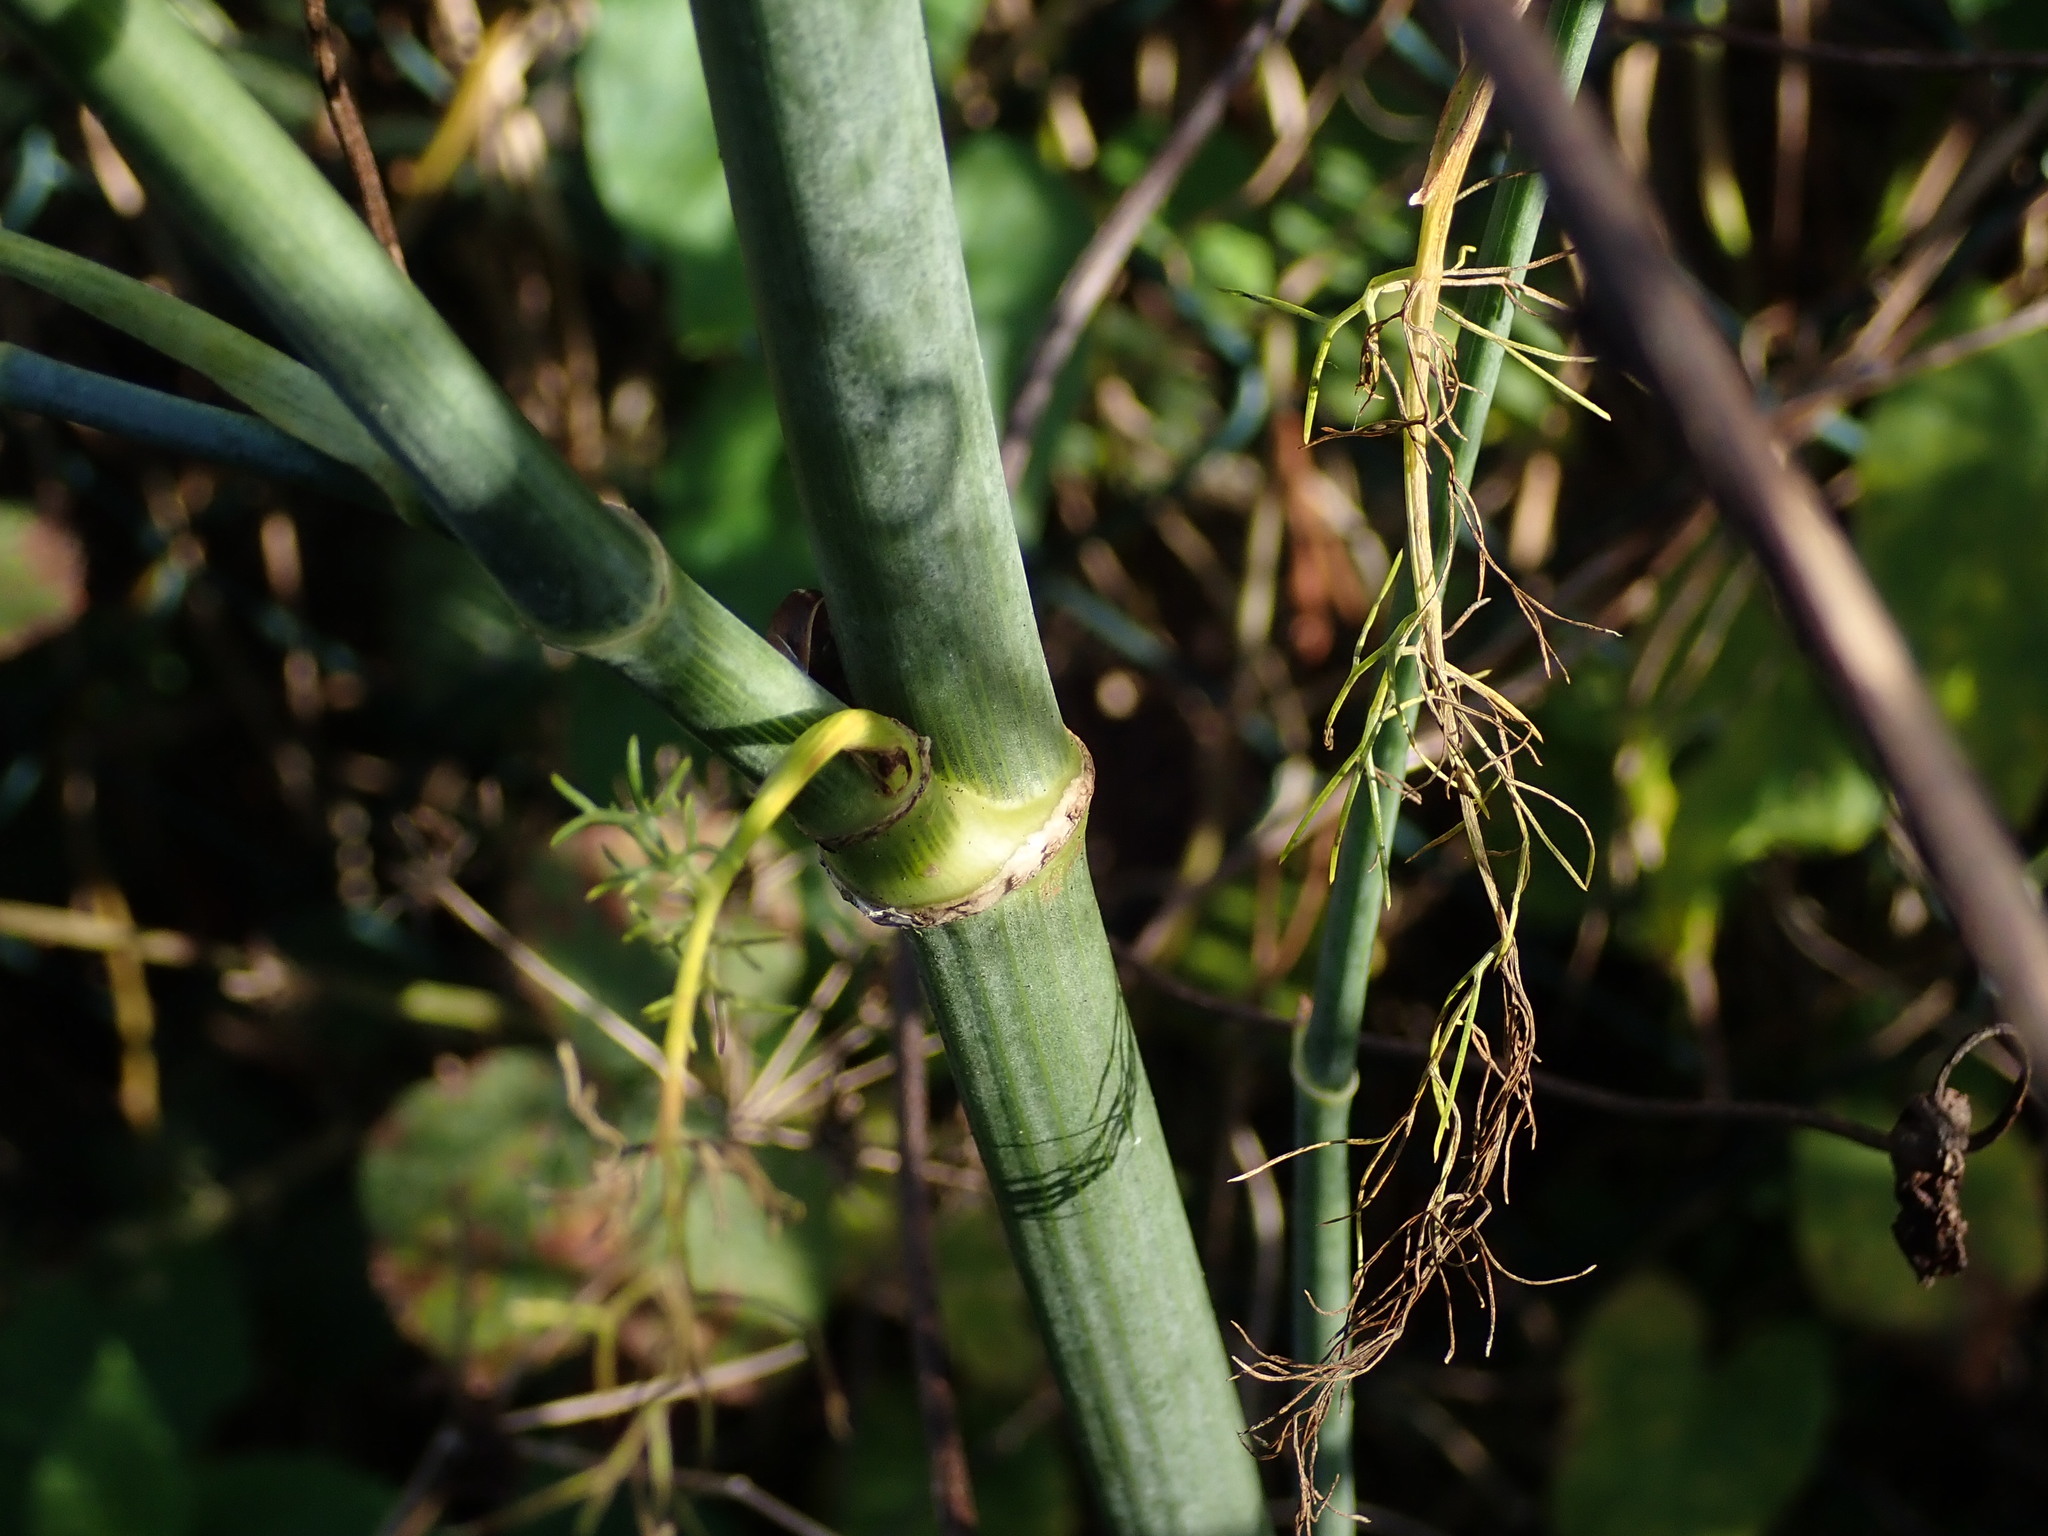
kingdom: Plantae
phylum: Tracheophyta
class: Magnoliopsida
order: Apiales
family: Apiaceae
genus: Foeniculum
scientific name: Foeniculum vulgare
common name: Fennel
